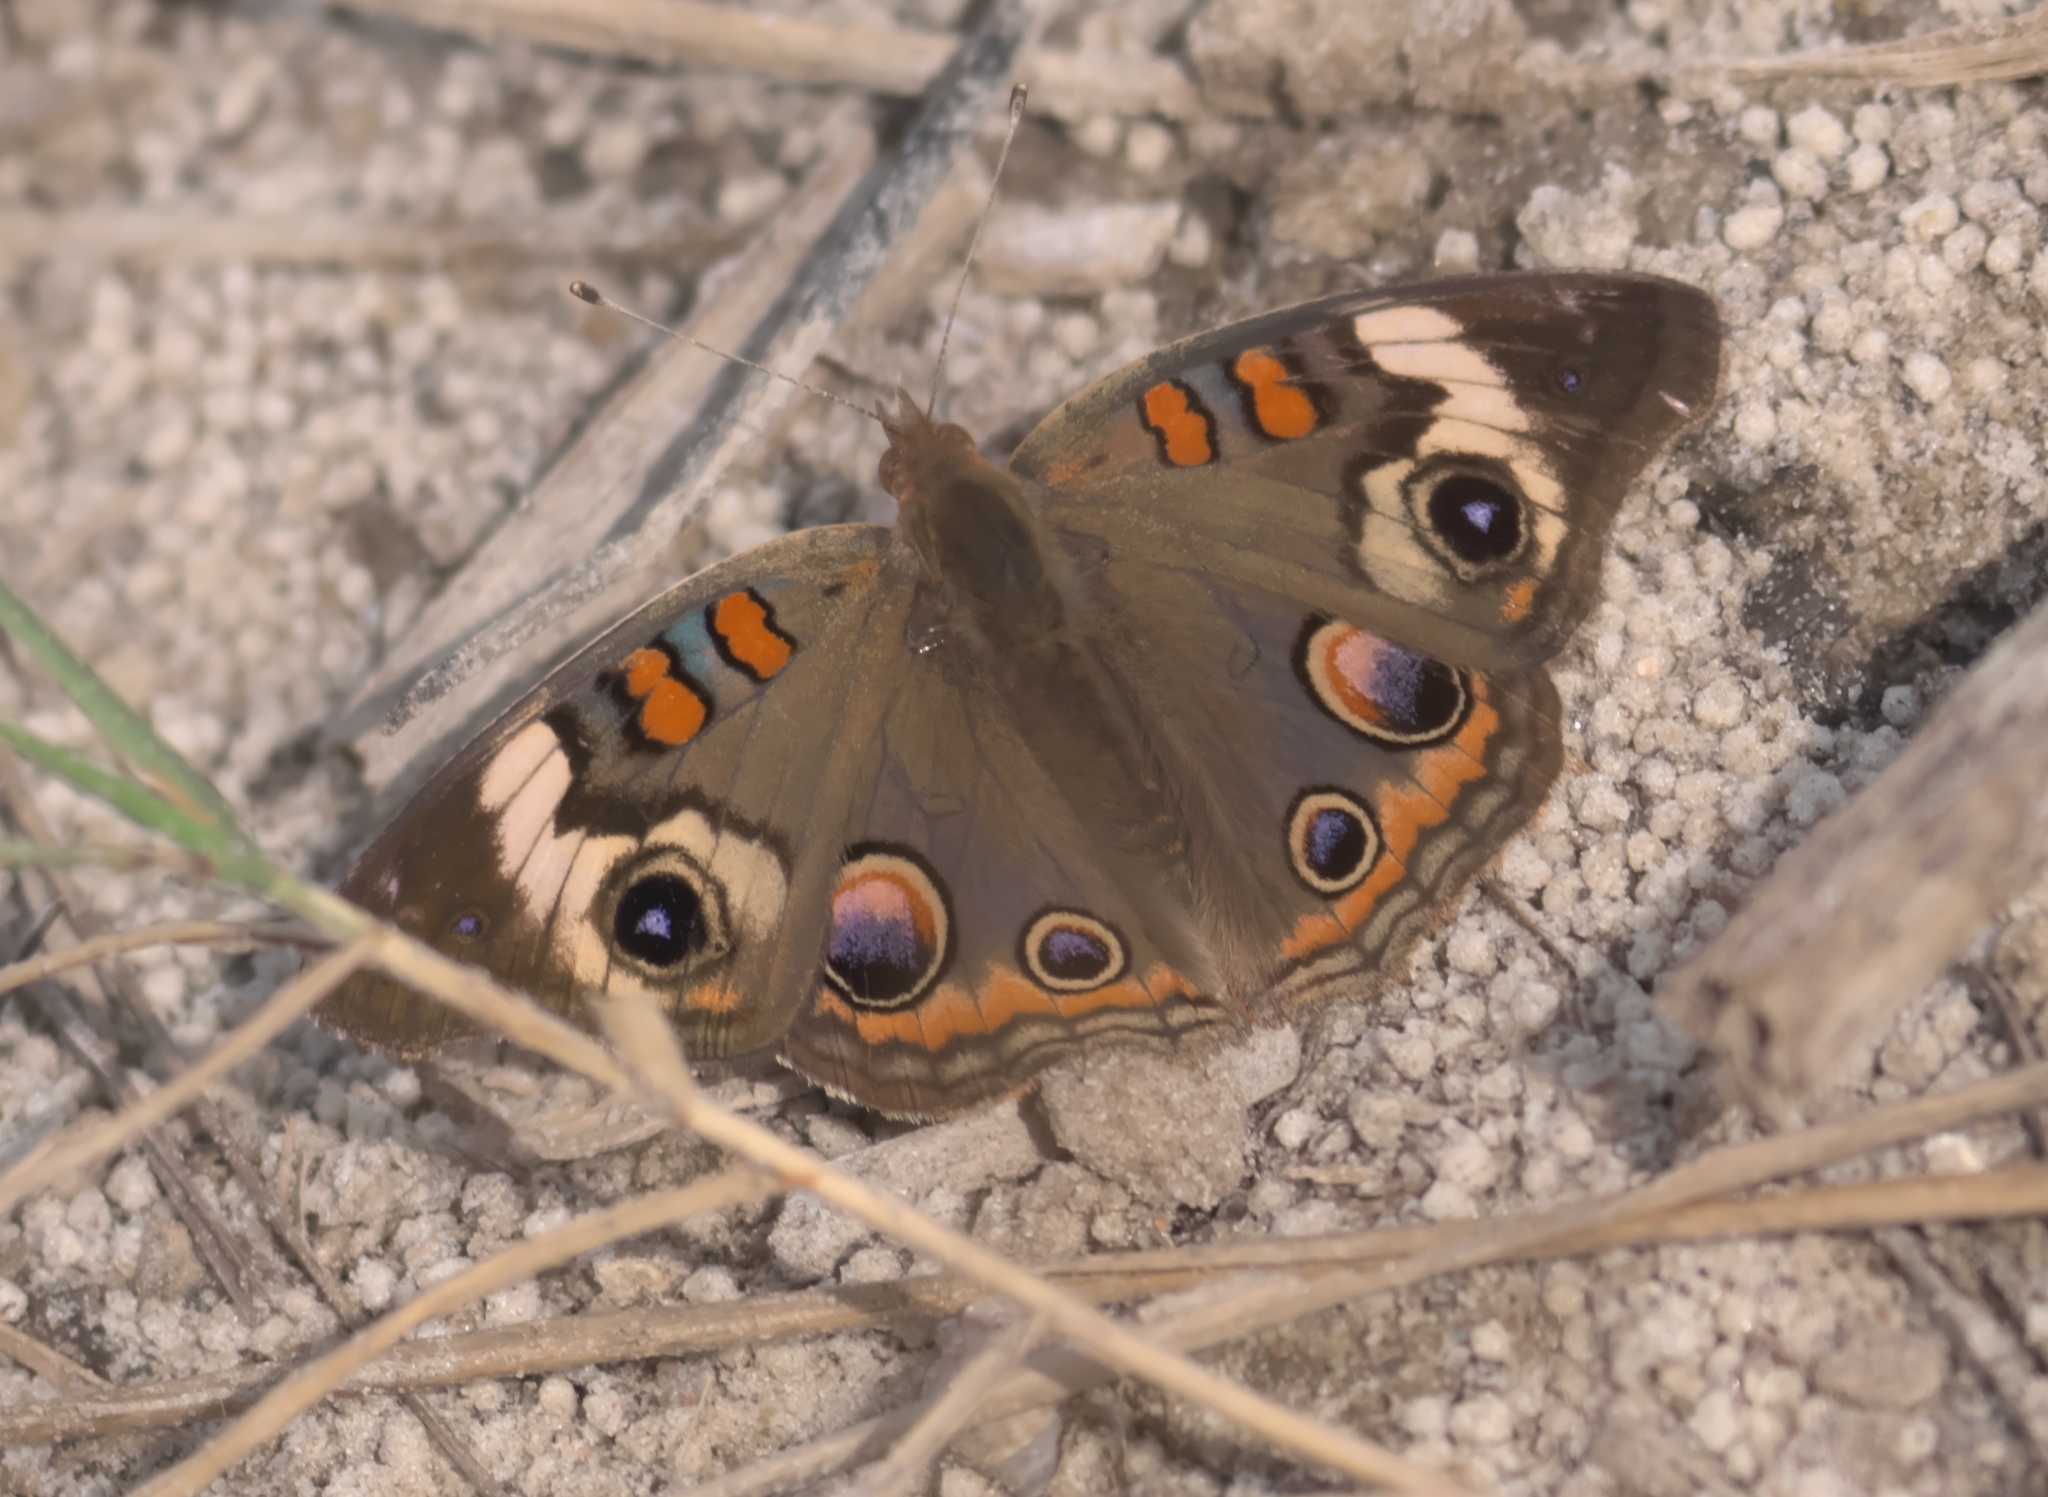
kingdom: Animalia
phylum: Arthropoda
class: Insecta
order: Lepidoptera
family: Nymphalidae
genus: Junonia
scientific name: Junonia coenia
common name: Common buckeye
